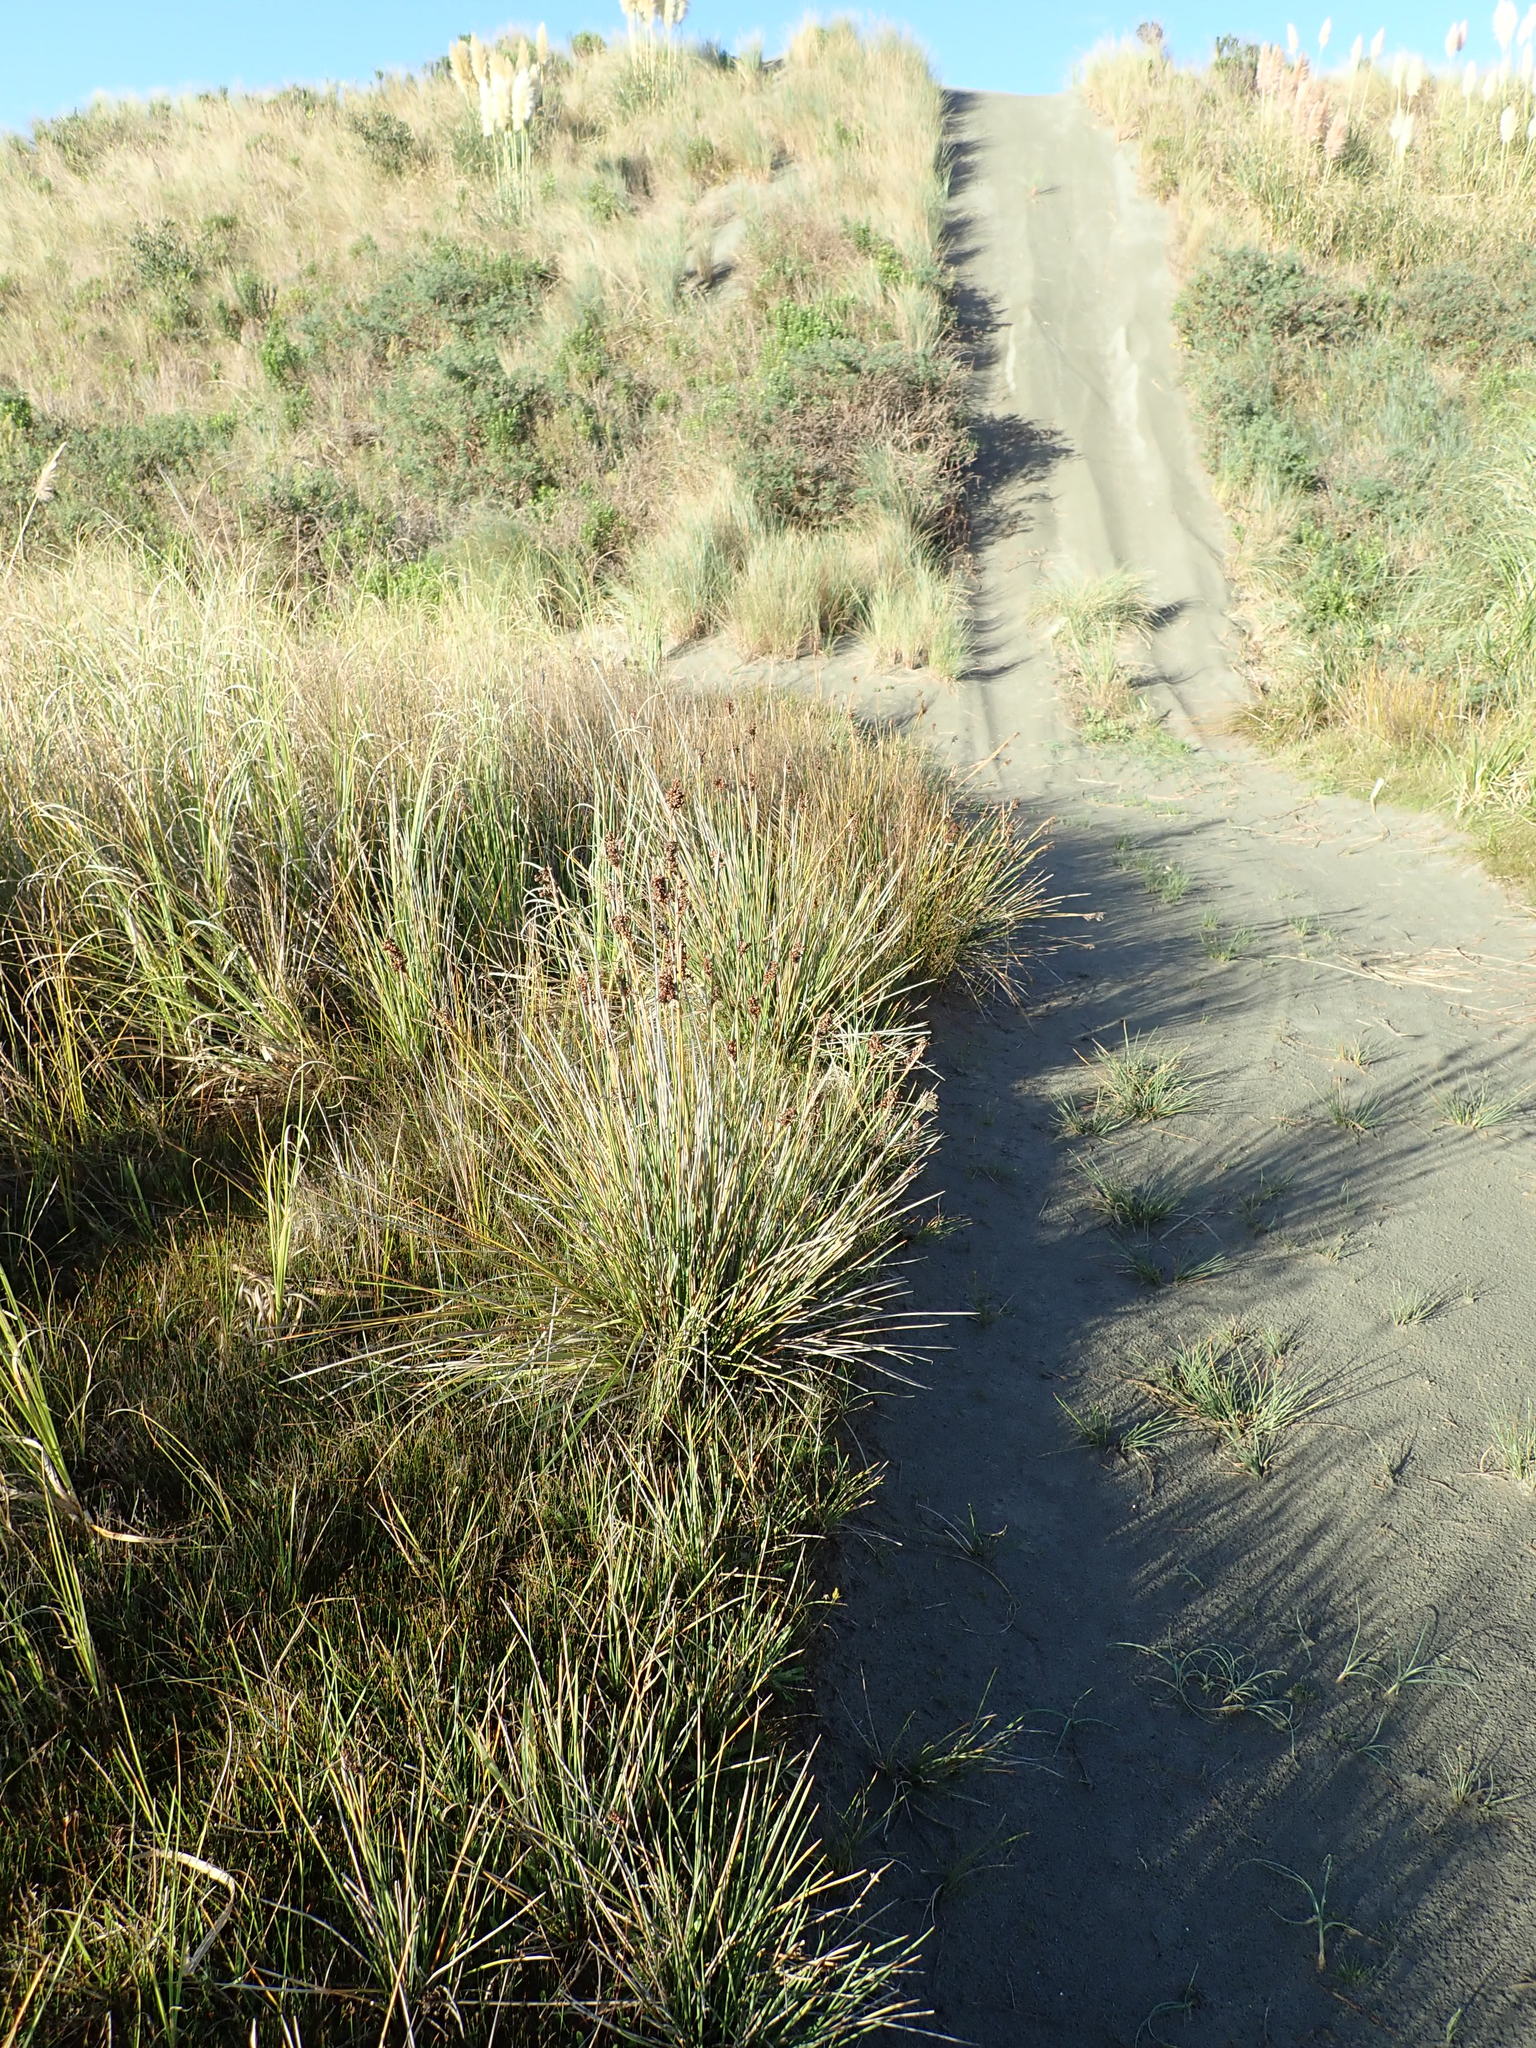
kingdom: Plantae
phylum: Tracheophyta
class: Liliopsida
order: Poales
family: Juncaceae
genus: Juncus
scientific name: Juncus acutus
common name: Sharp rush
